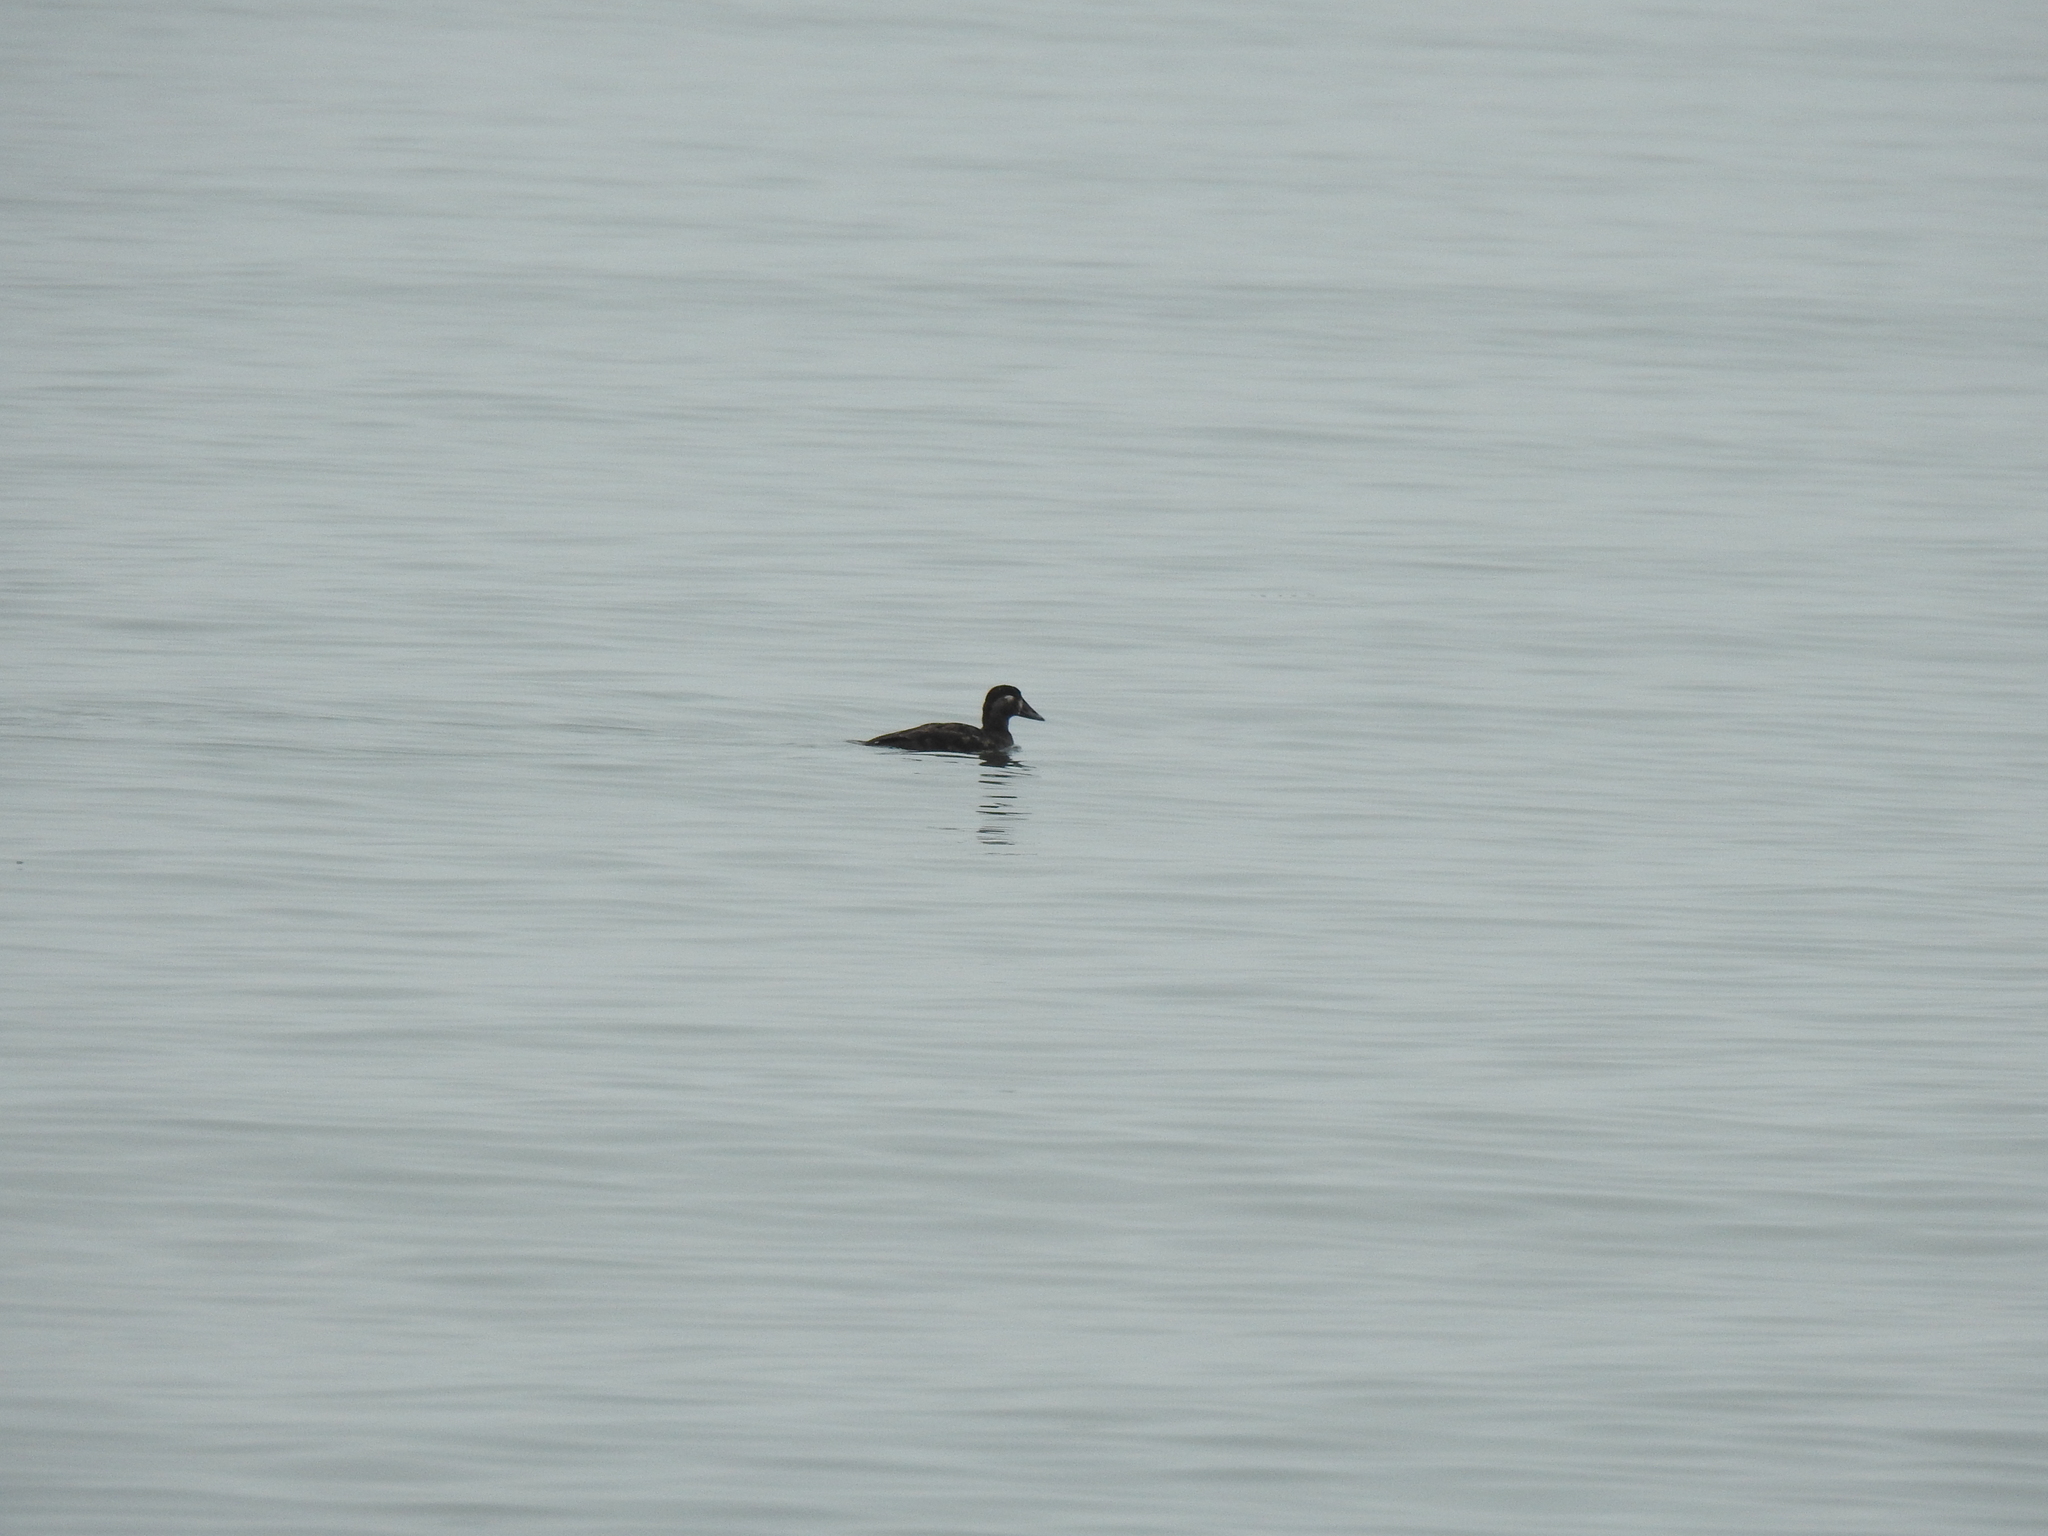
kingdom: Animalia
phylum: Chordata
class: Aves
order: Anseriformes
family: Anatidae
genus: Melanitta
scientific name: Melanitta perspicillata
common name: Surf scoter
